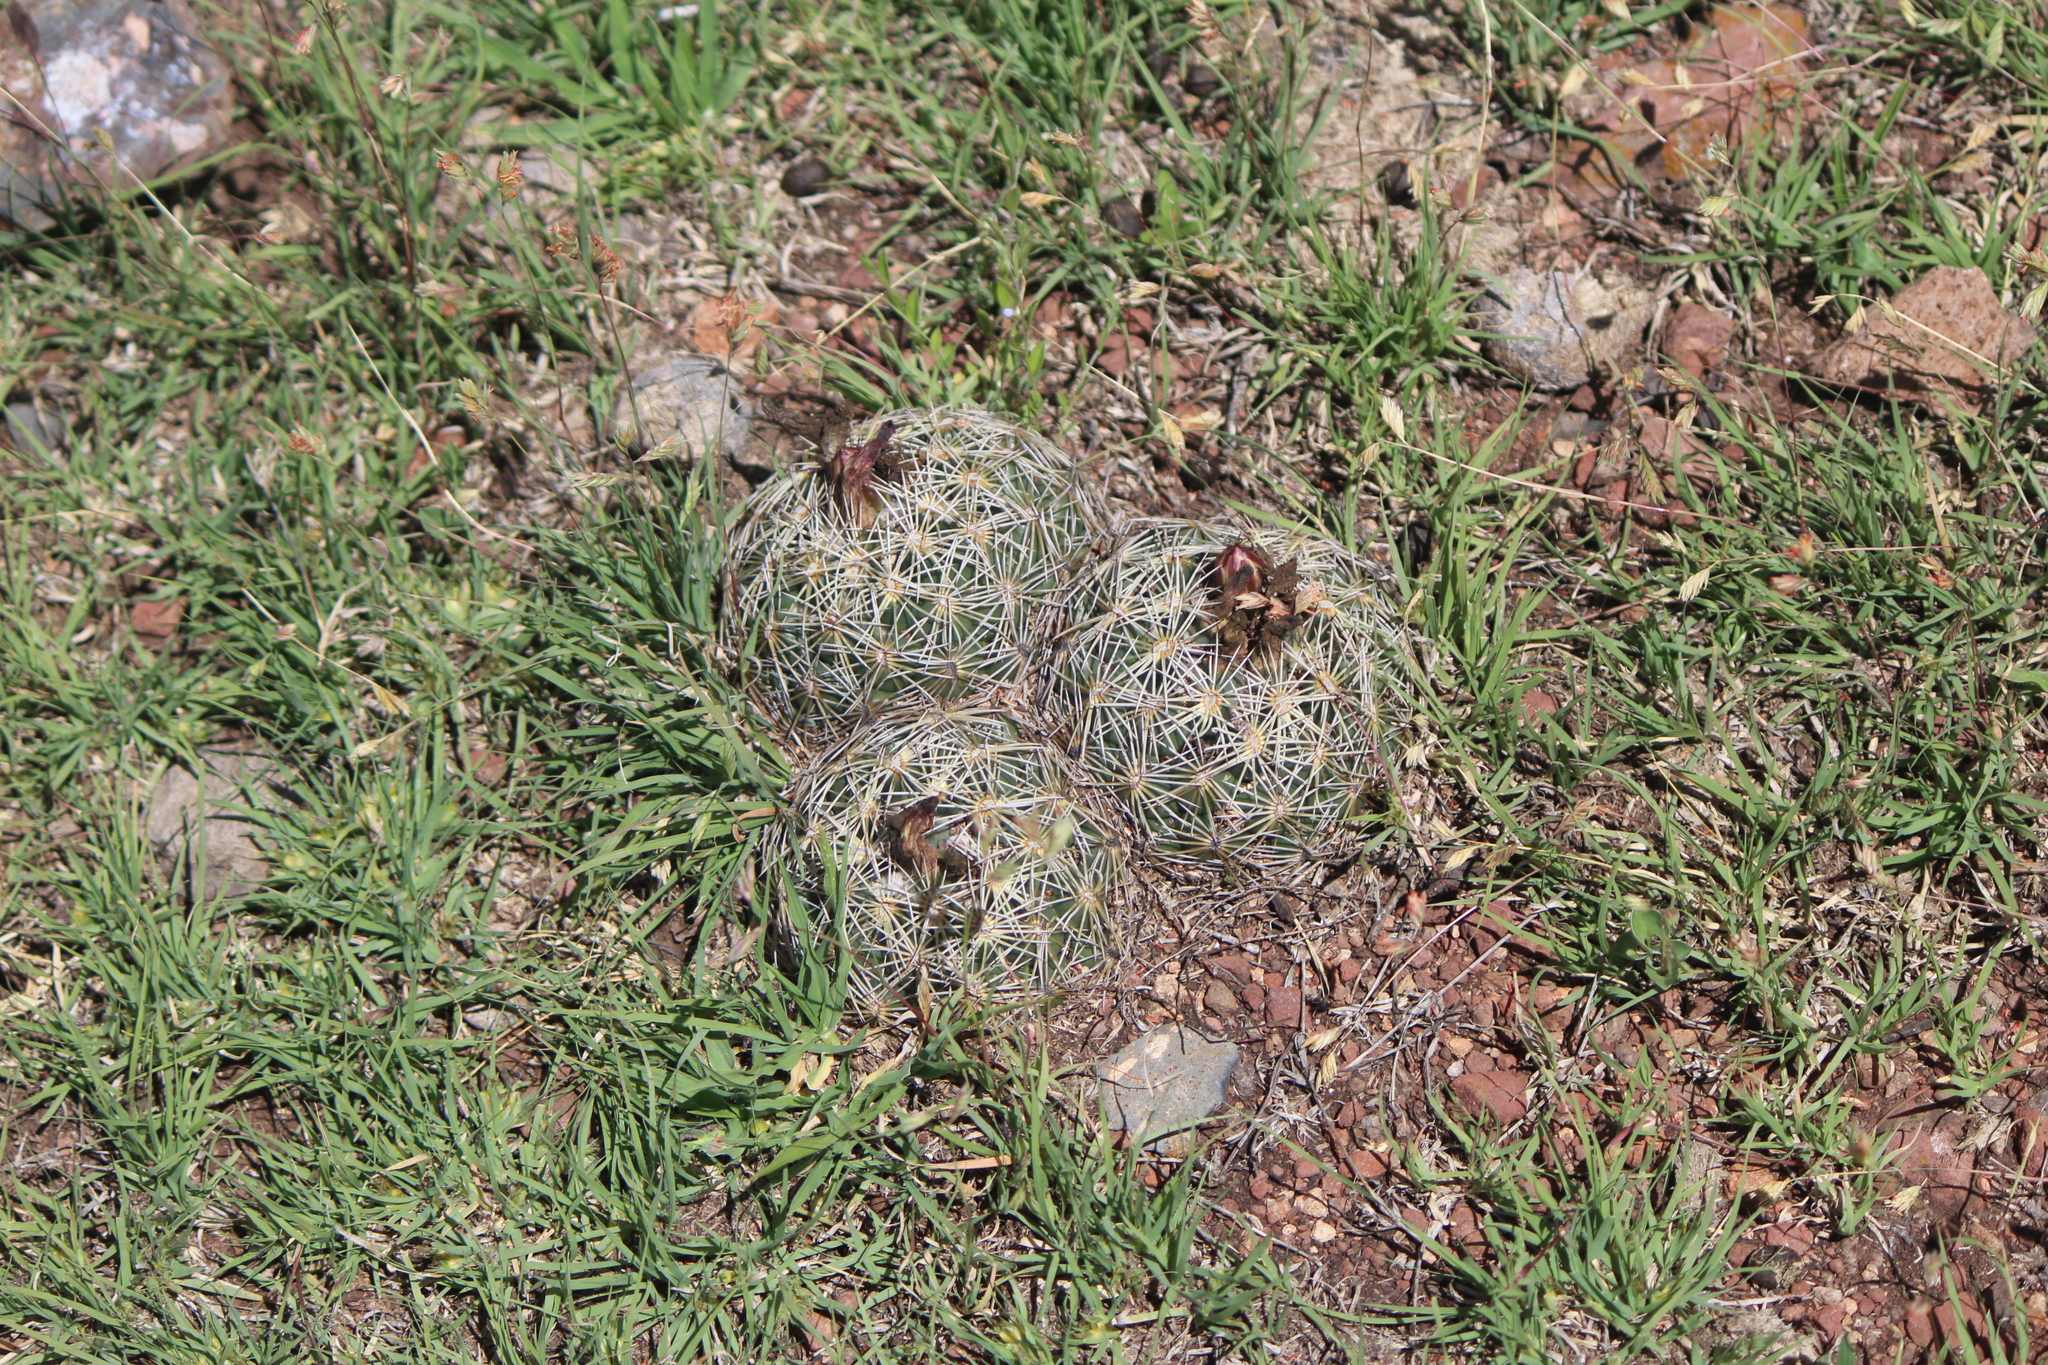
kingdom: Plantae
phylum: Tracheophyta
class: Magnoliopsida
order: Caryophyllales
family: Cactaceae
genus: Coryphantha
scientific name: Coryphantha cornifera
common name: Rhinoceros cactus
